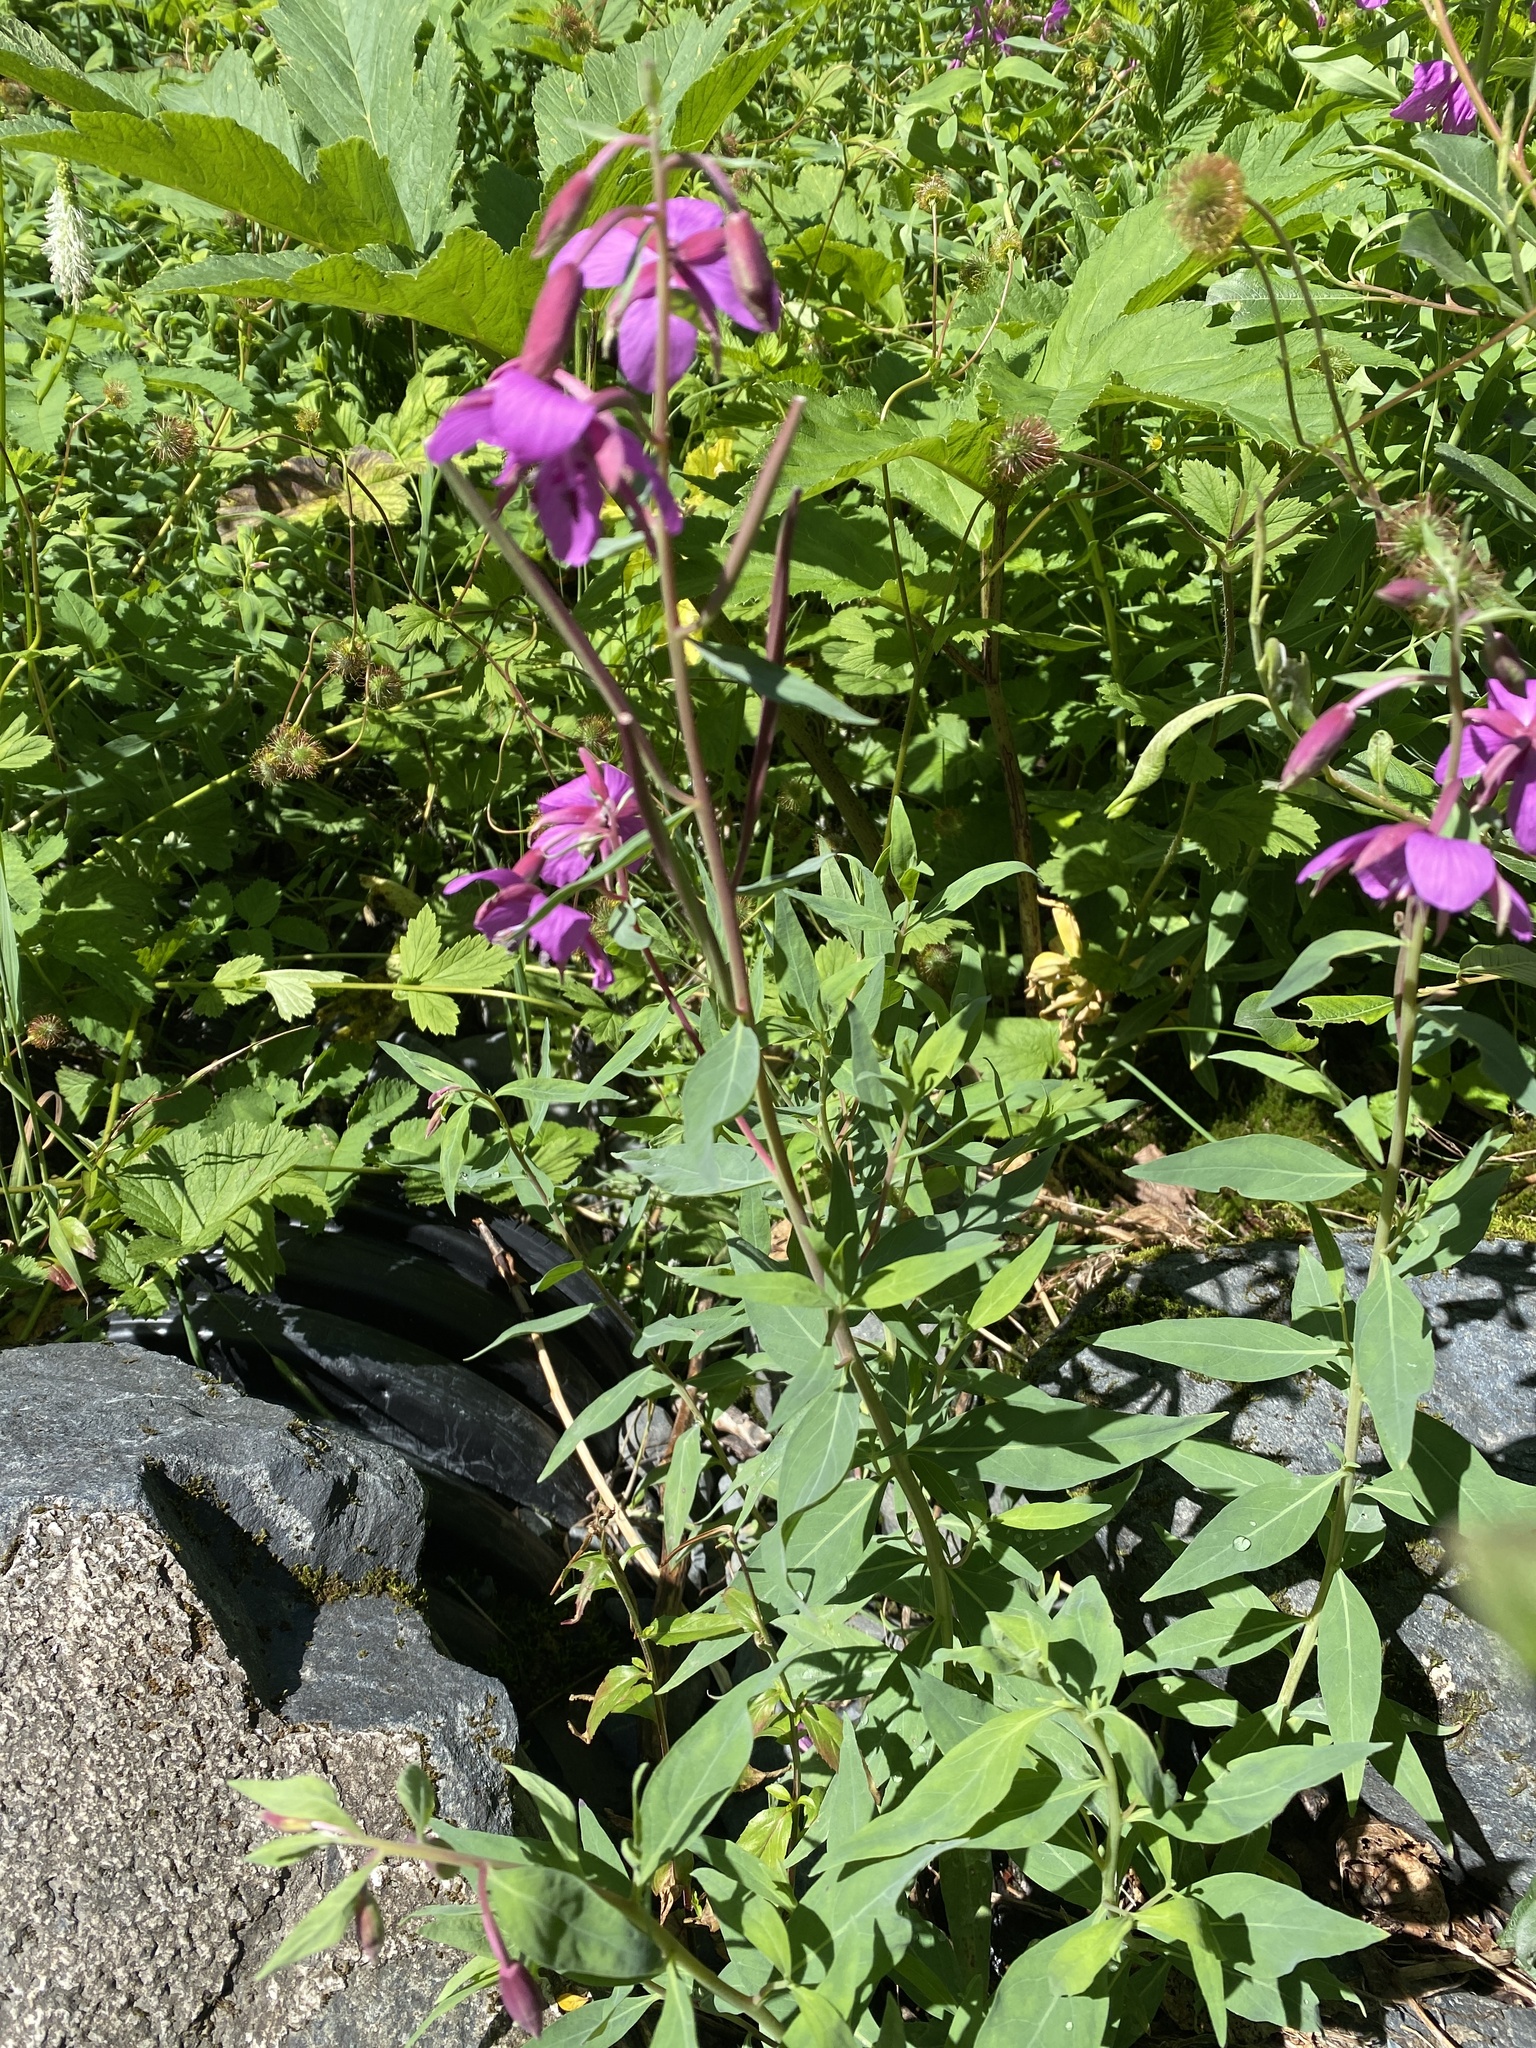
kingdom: Plantae
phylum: Tracheophyta
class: Magnoliopsida
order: Myrtales
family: Onagraceae
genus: Chamaenerion
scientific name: Chamaenerion latifolium
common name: Dwarf fireweed
